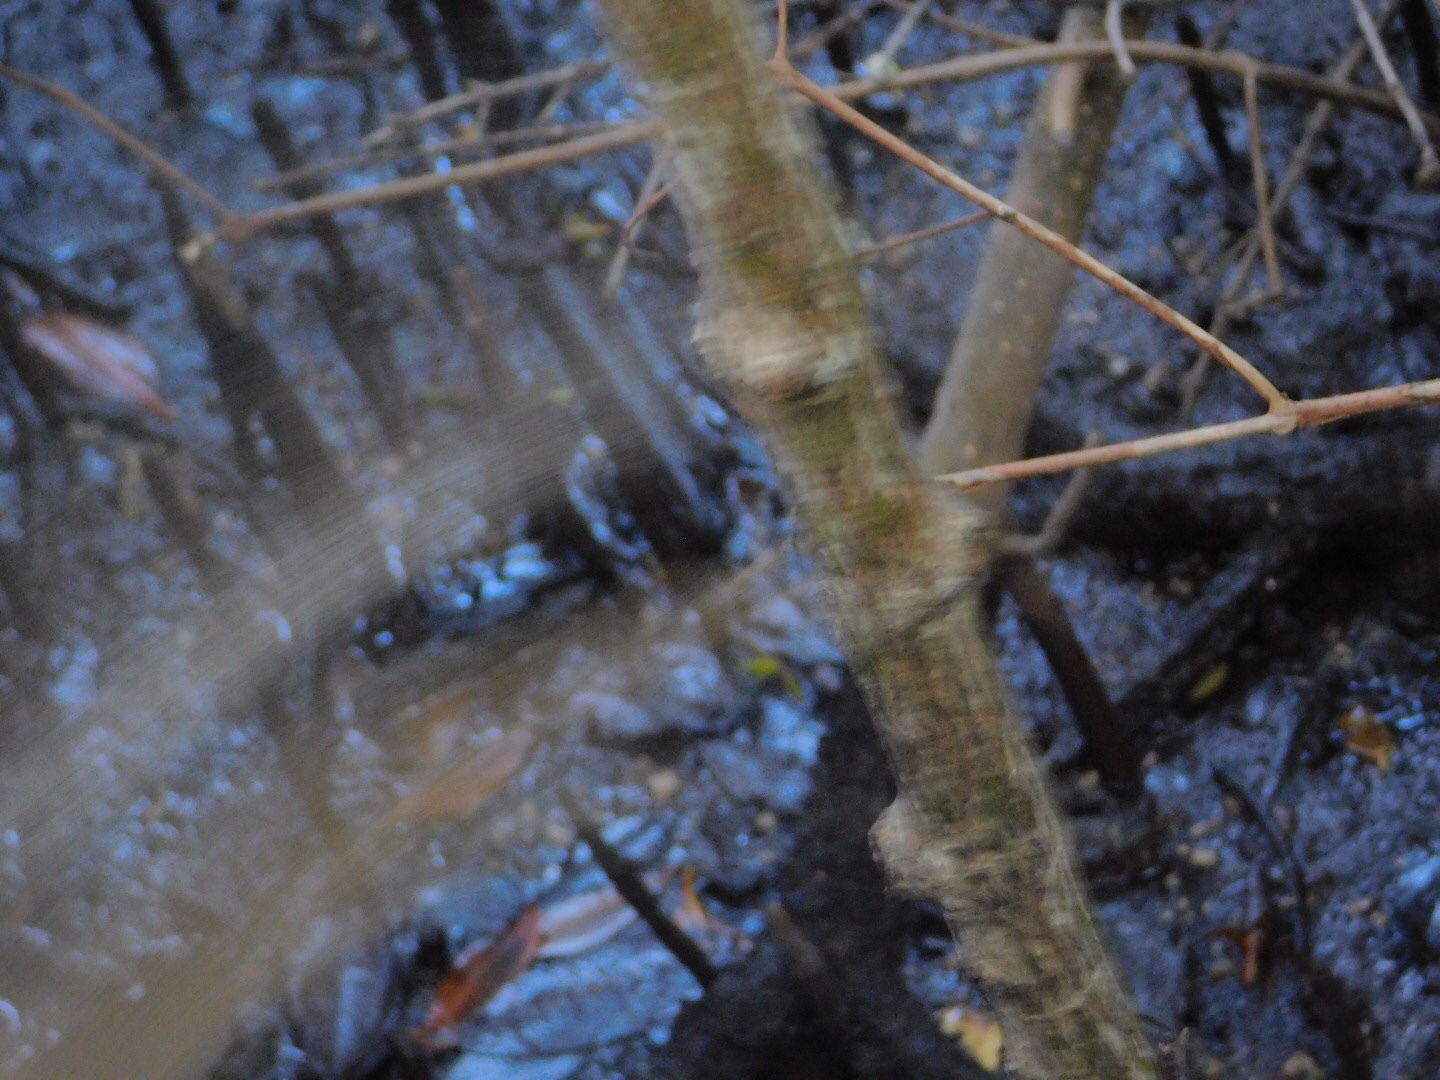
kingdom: Animalia
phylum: Chordata
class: Mammalia
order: Rodentia
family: Sciuridae
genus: Sciurus
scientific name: Sciurus carolinensis
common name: Eastern gray squirrel
